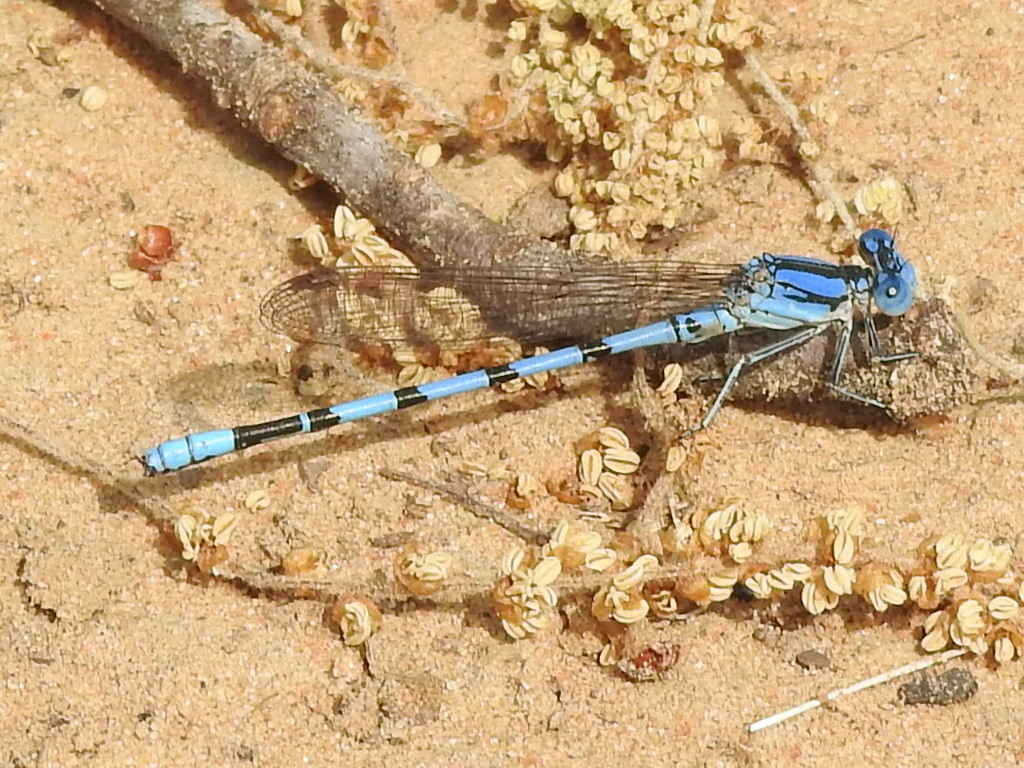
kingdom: Animalia
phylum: Arthropoda
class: Insecta
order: Odonata
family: Coenagrionidae
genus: Argia
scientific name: Argia nahuana
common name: Aztec dancer
